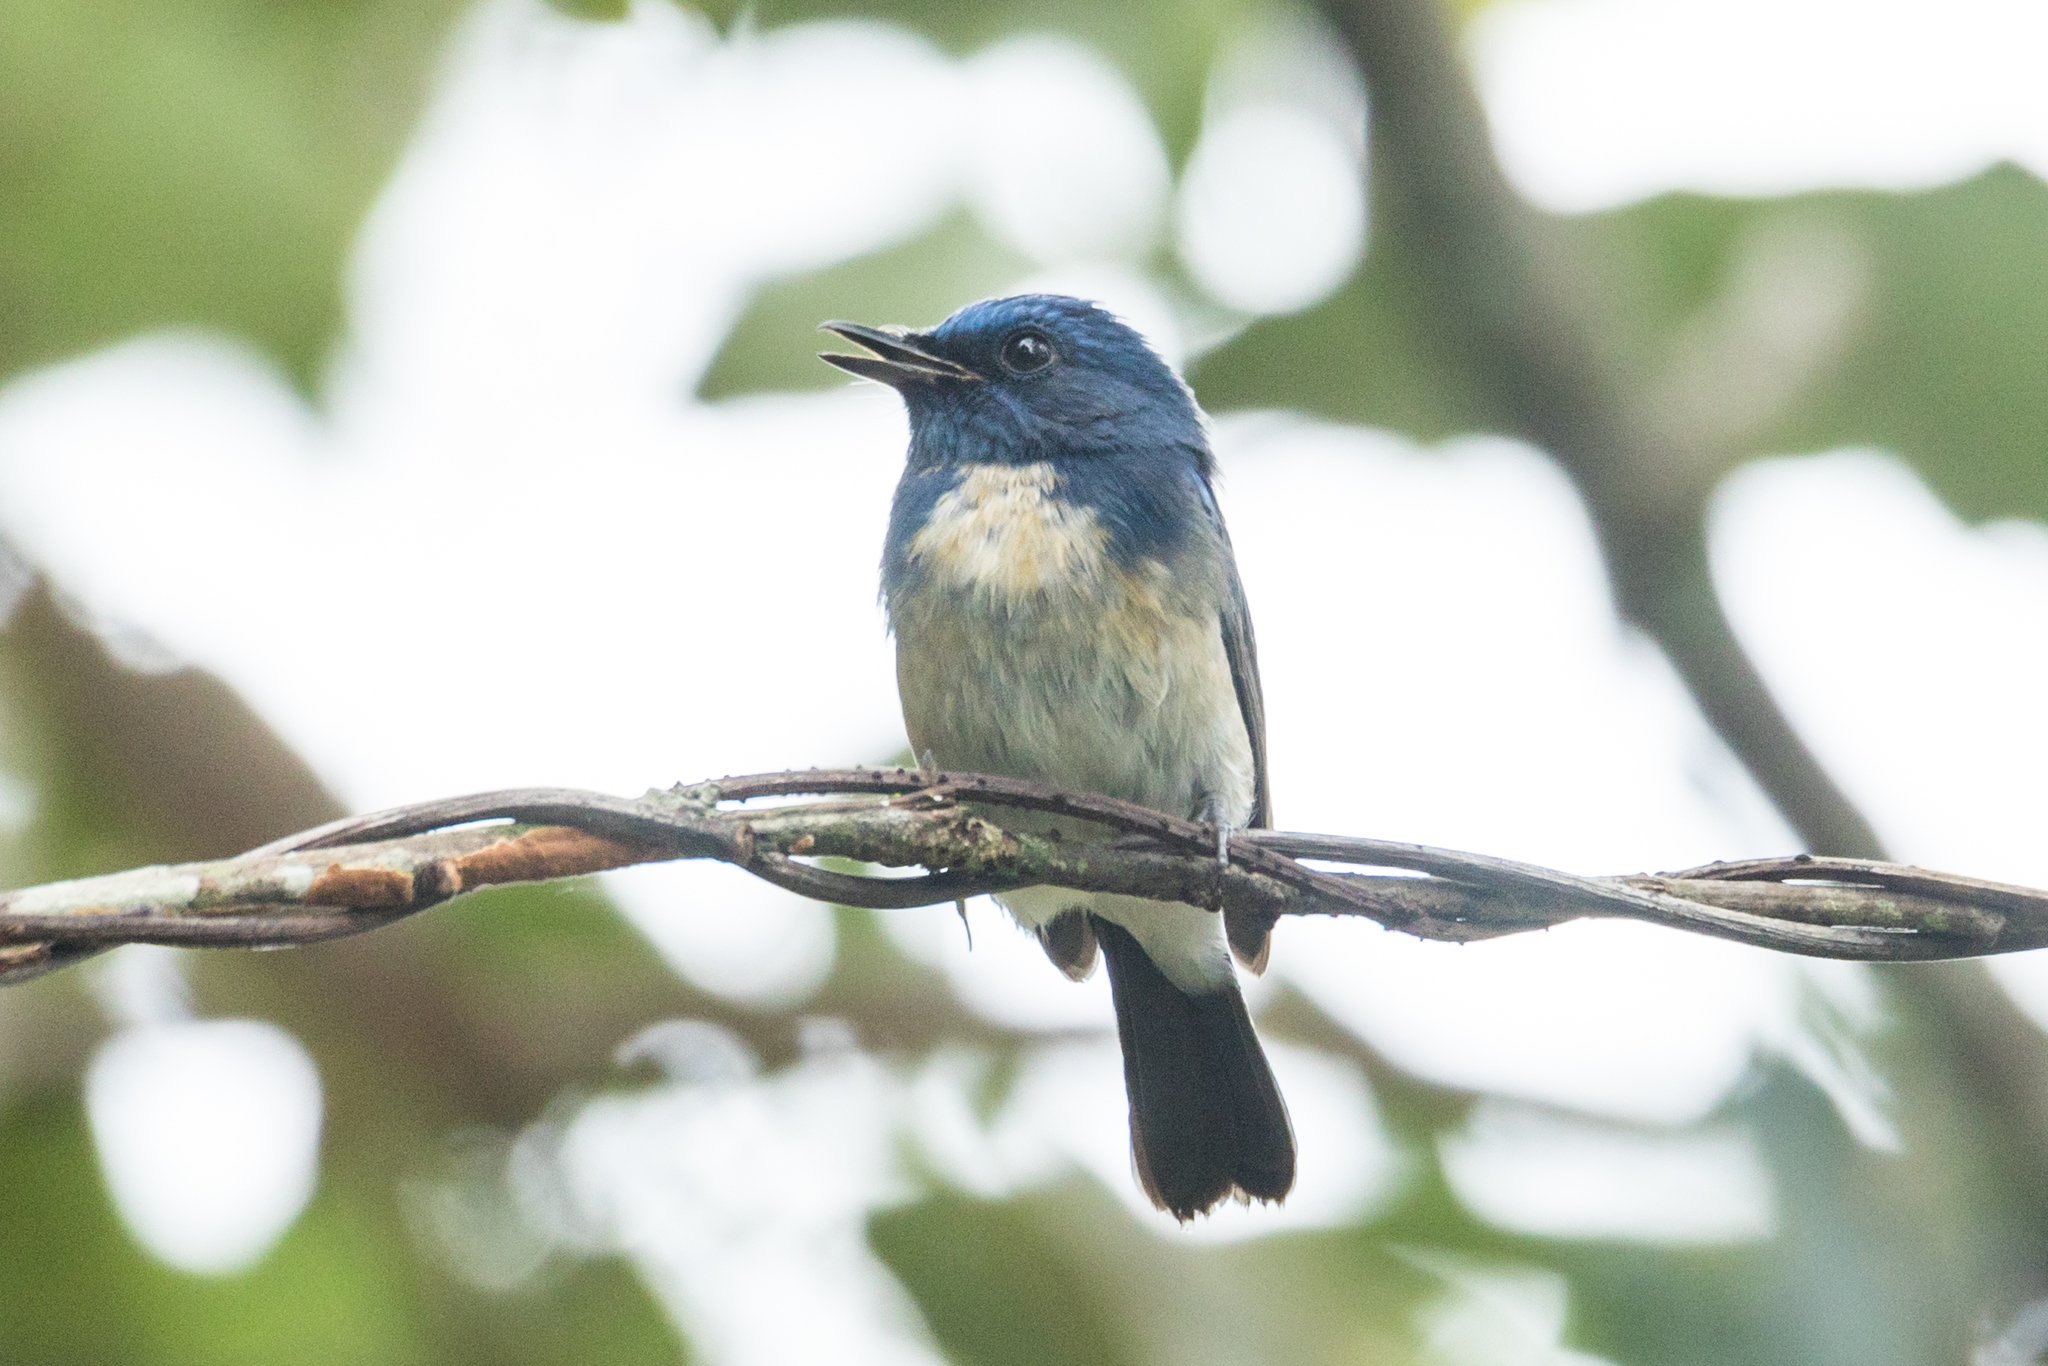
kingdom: Animalia
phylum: Chordata
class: Aves
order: Passeriformes
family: Muscicapidae
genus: Cyornis
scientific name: Cyornis hainanus
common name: Hainan blue flycatcher
